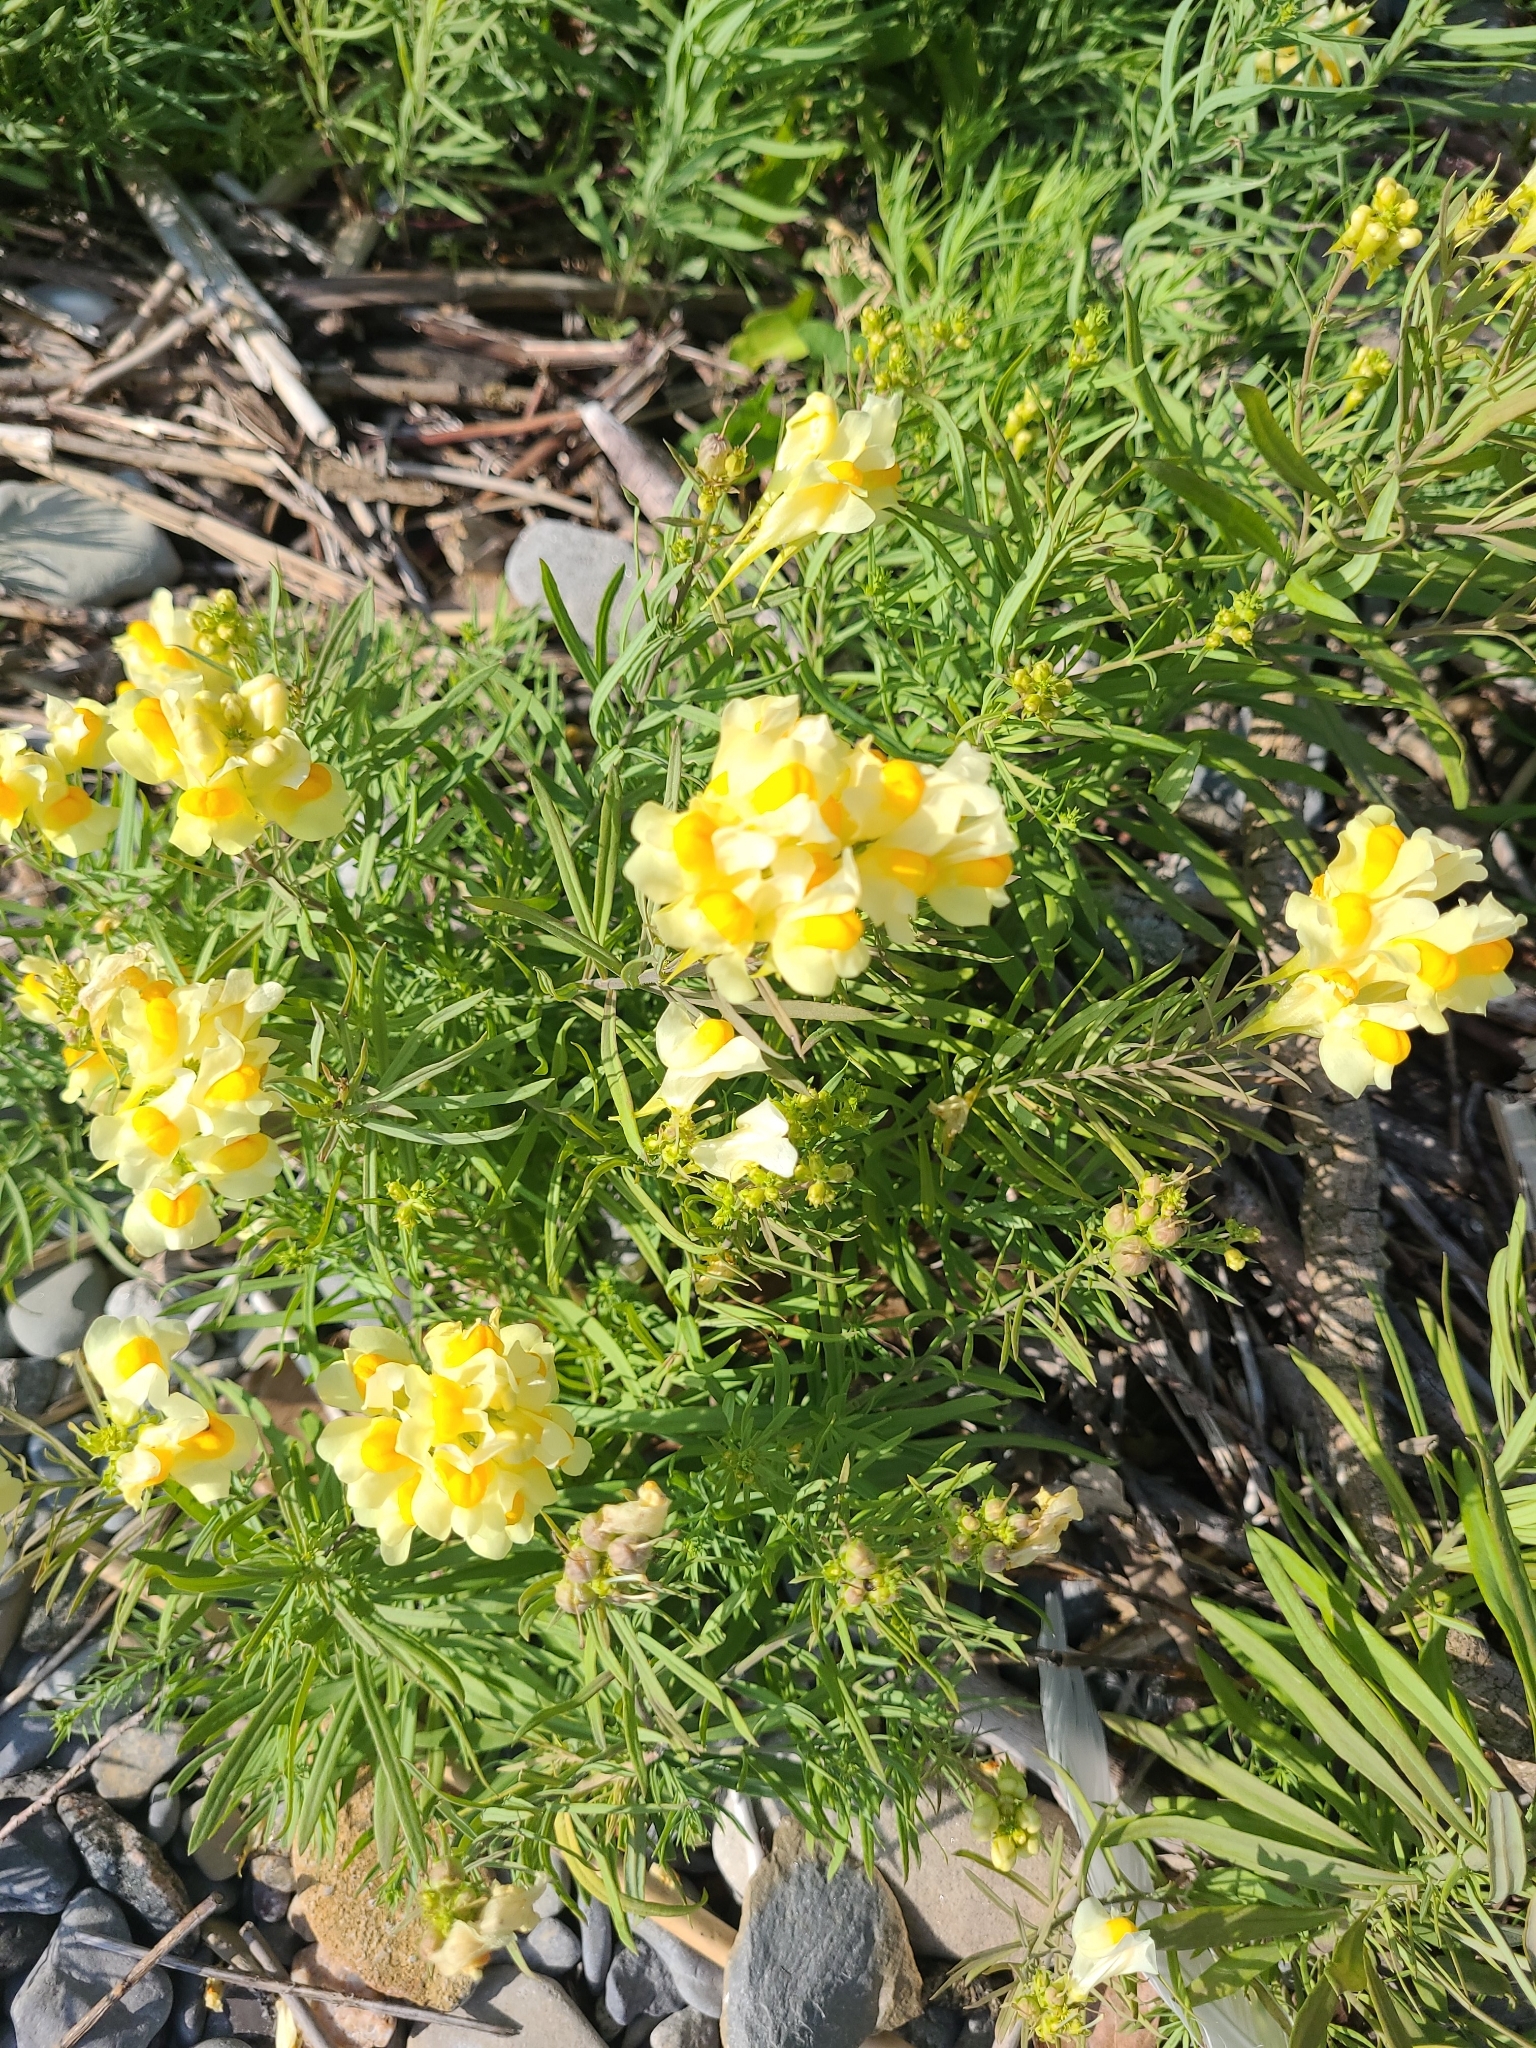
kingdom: Plantae
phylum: Tracheophyta
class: Magnoliopsida
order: Lamiales
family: Plantaginaceae
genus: Linaria
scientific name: Linaria vulgaris
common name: Butter and eggs
